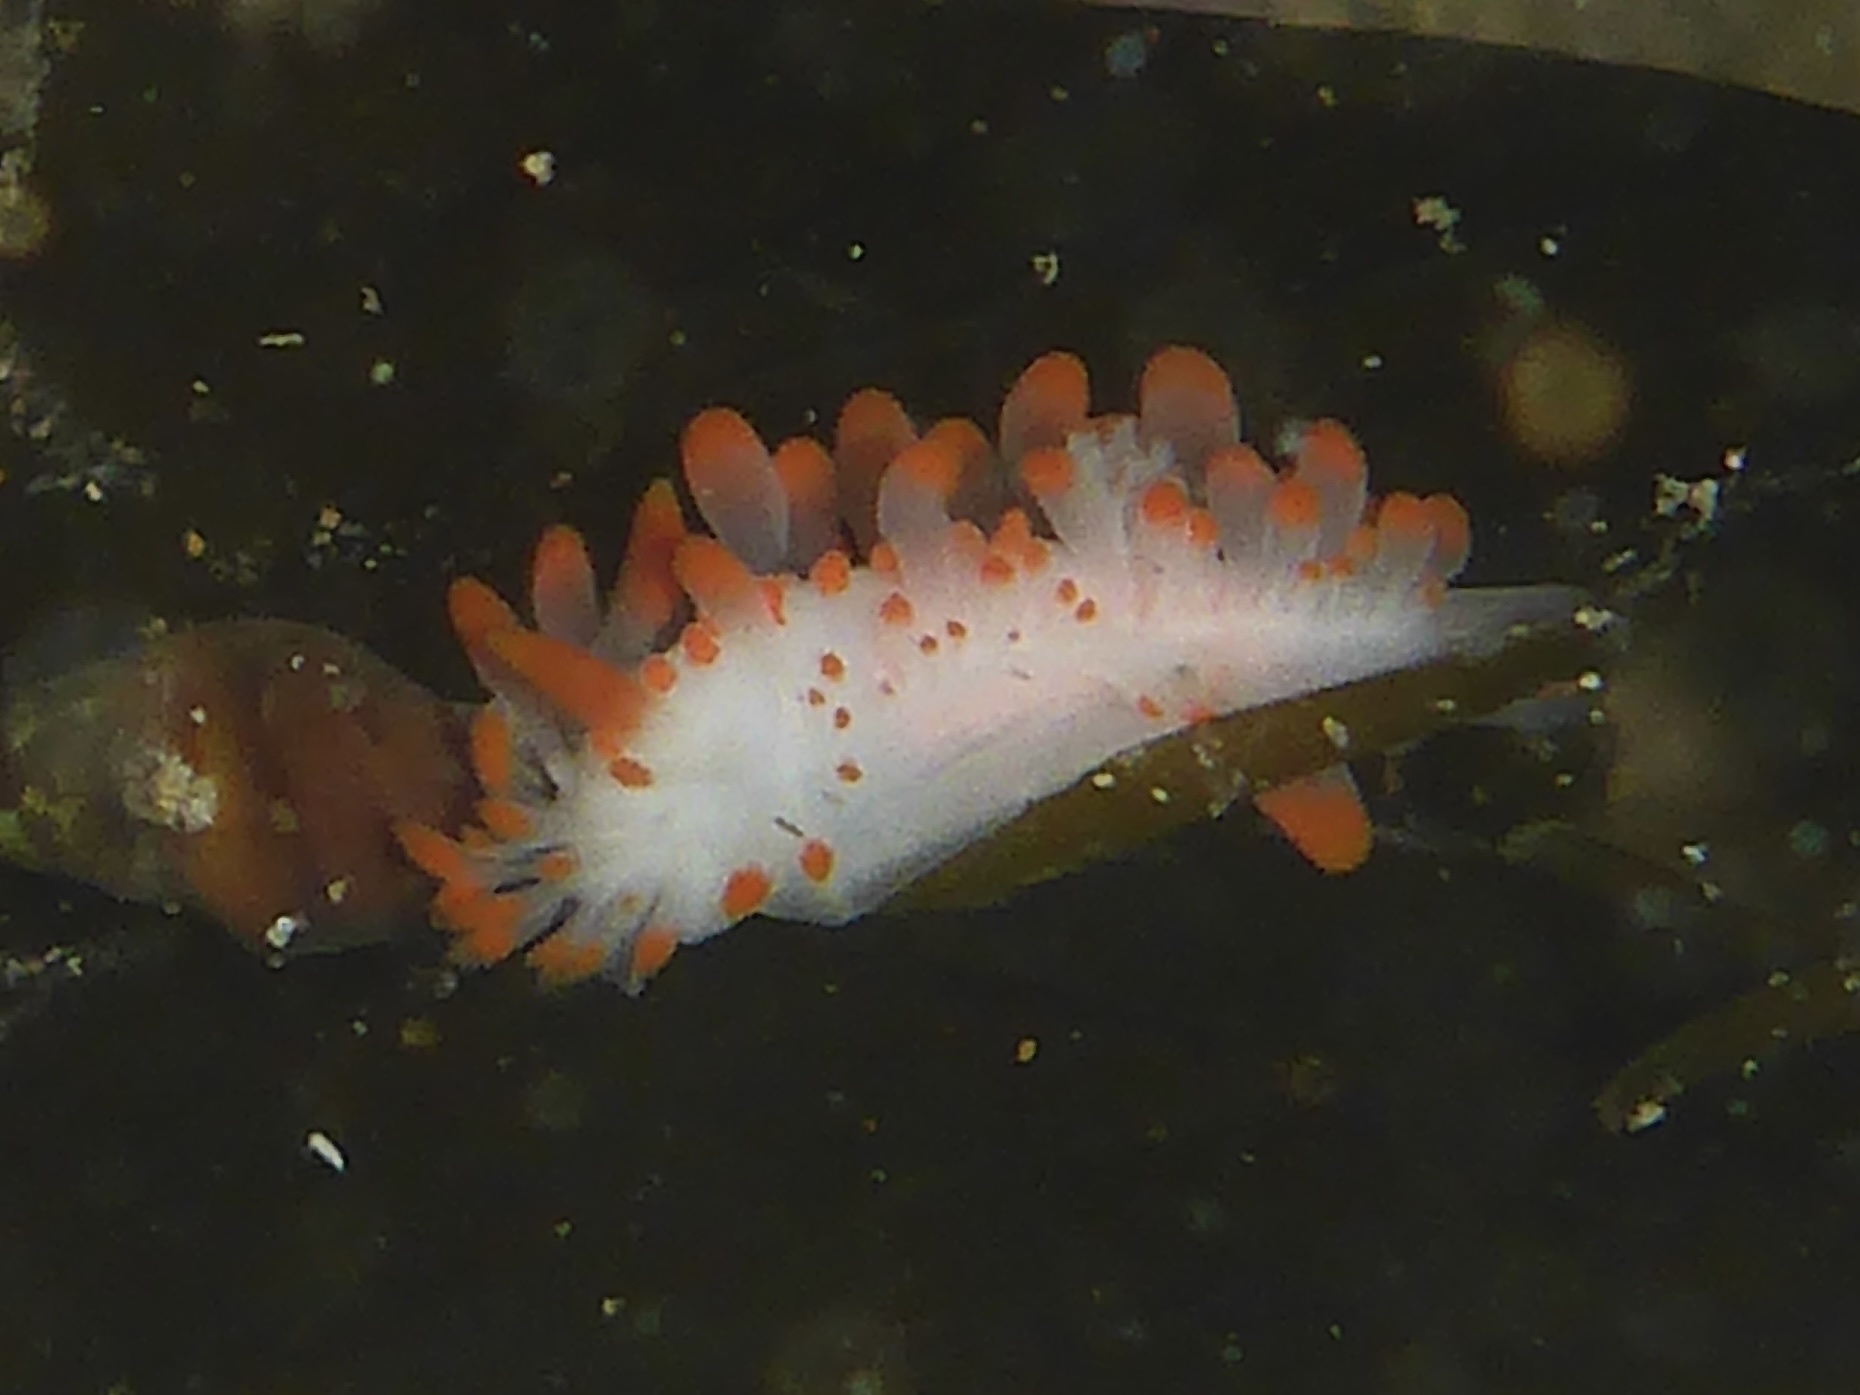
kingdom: Animalia
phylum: Mollusca
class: Gastropoda
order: Nudibranchia
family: Polyceridae
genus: Limacia
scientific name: Limacia mcdonaldi
